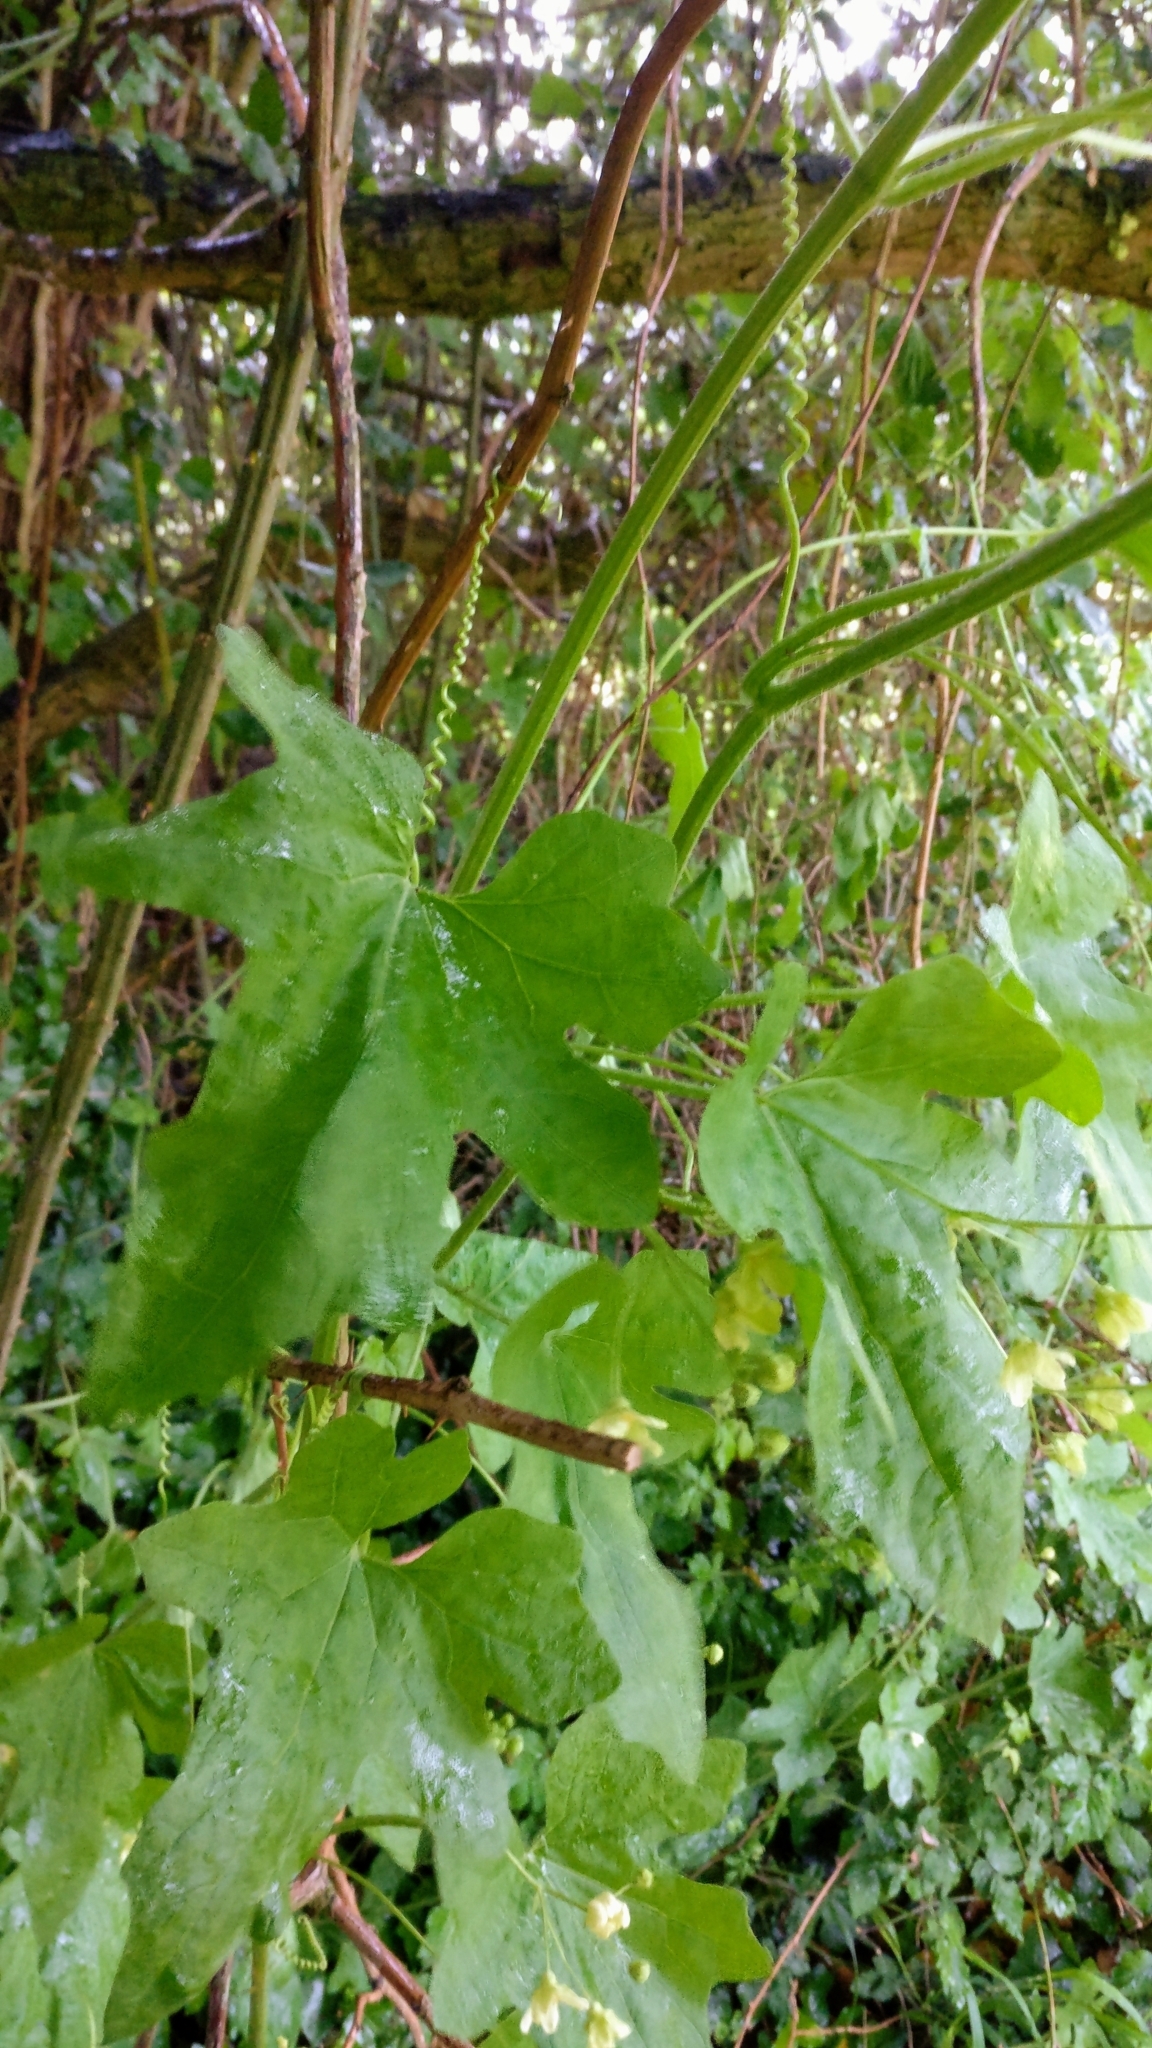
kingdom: Plantae
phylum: Tracheophyta
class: Magnoliopsida
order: Cucurbitales
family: Cucurbitaceae
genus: Bryonia
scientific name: Bryonia dioica
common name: White bryony
